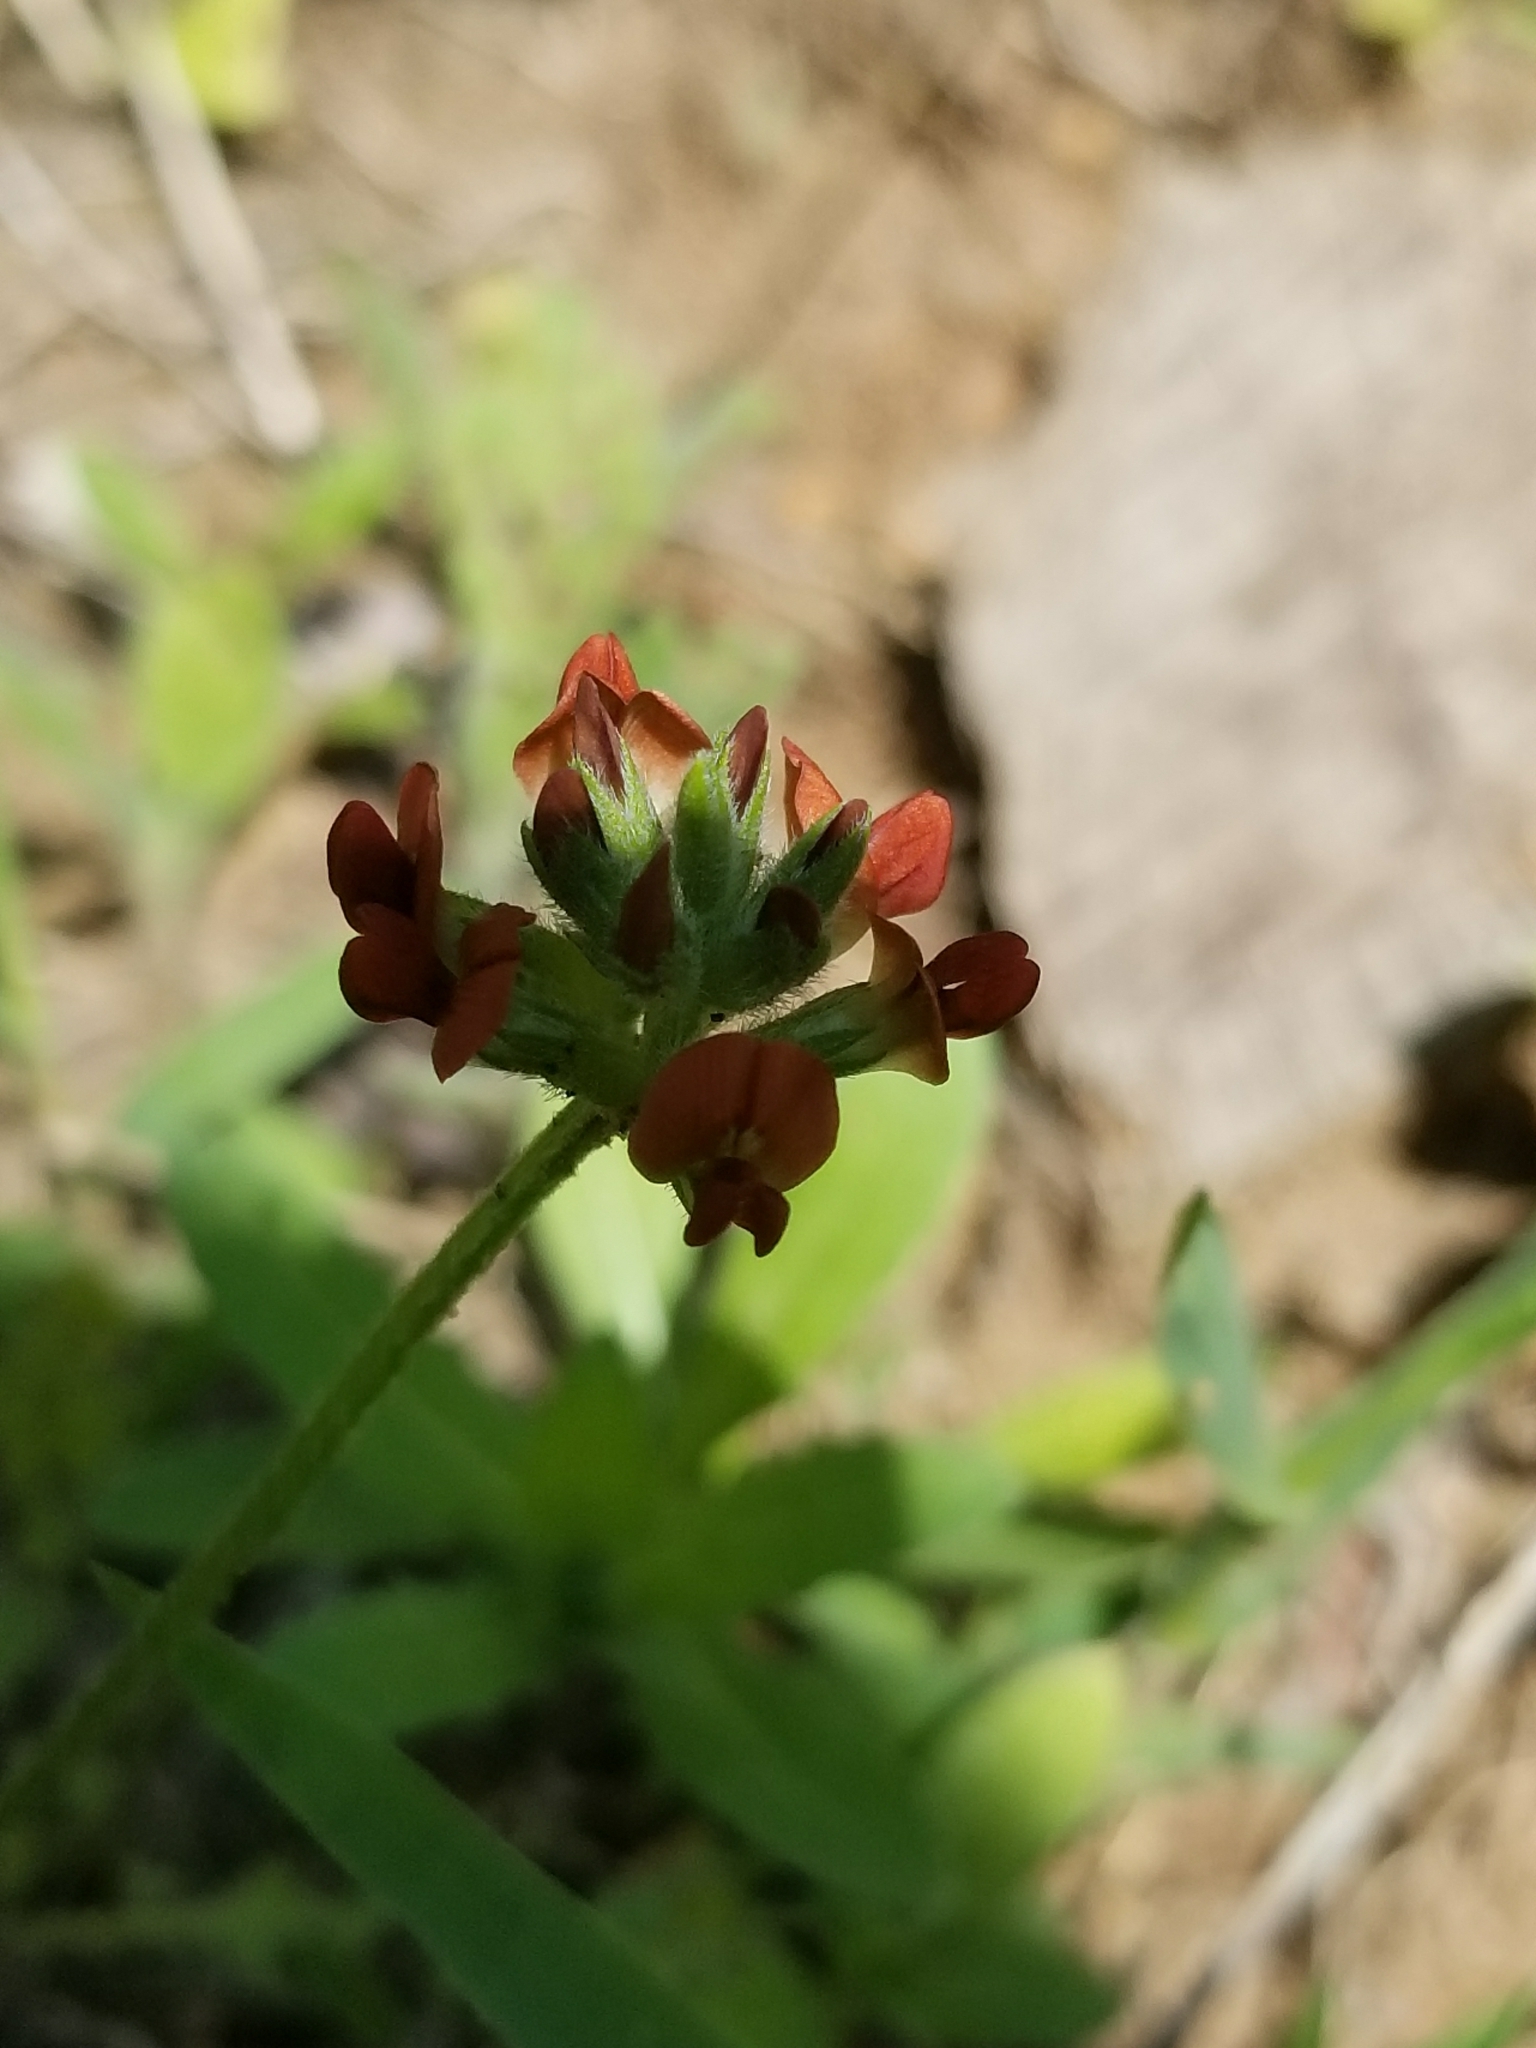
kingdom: Plantae
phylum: Tracheophyta
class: Magnoliopsida
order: Fabales
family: Fabaceae
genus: Pediomelum
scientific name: Pediomelum rhombifolium
